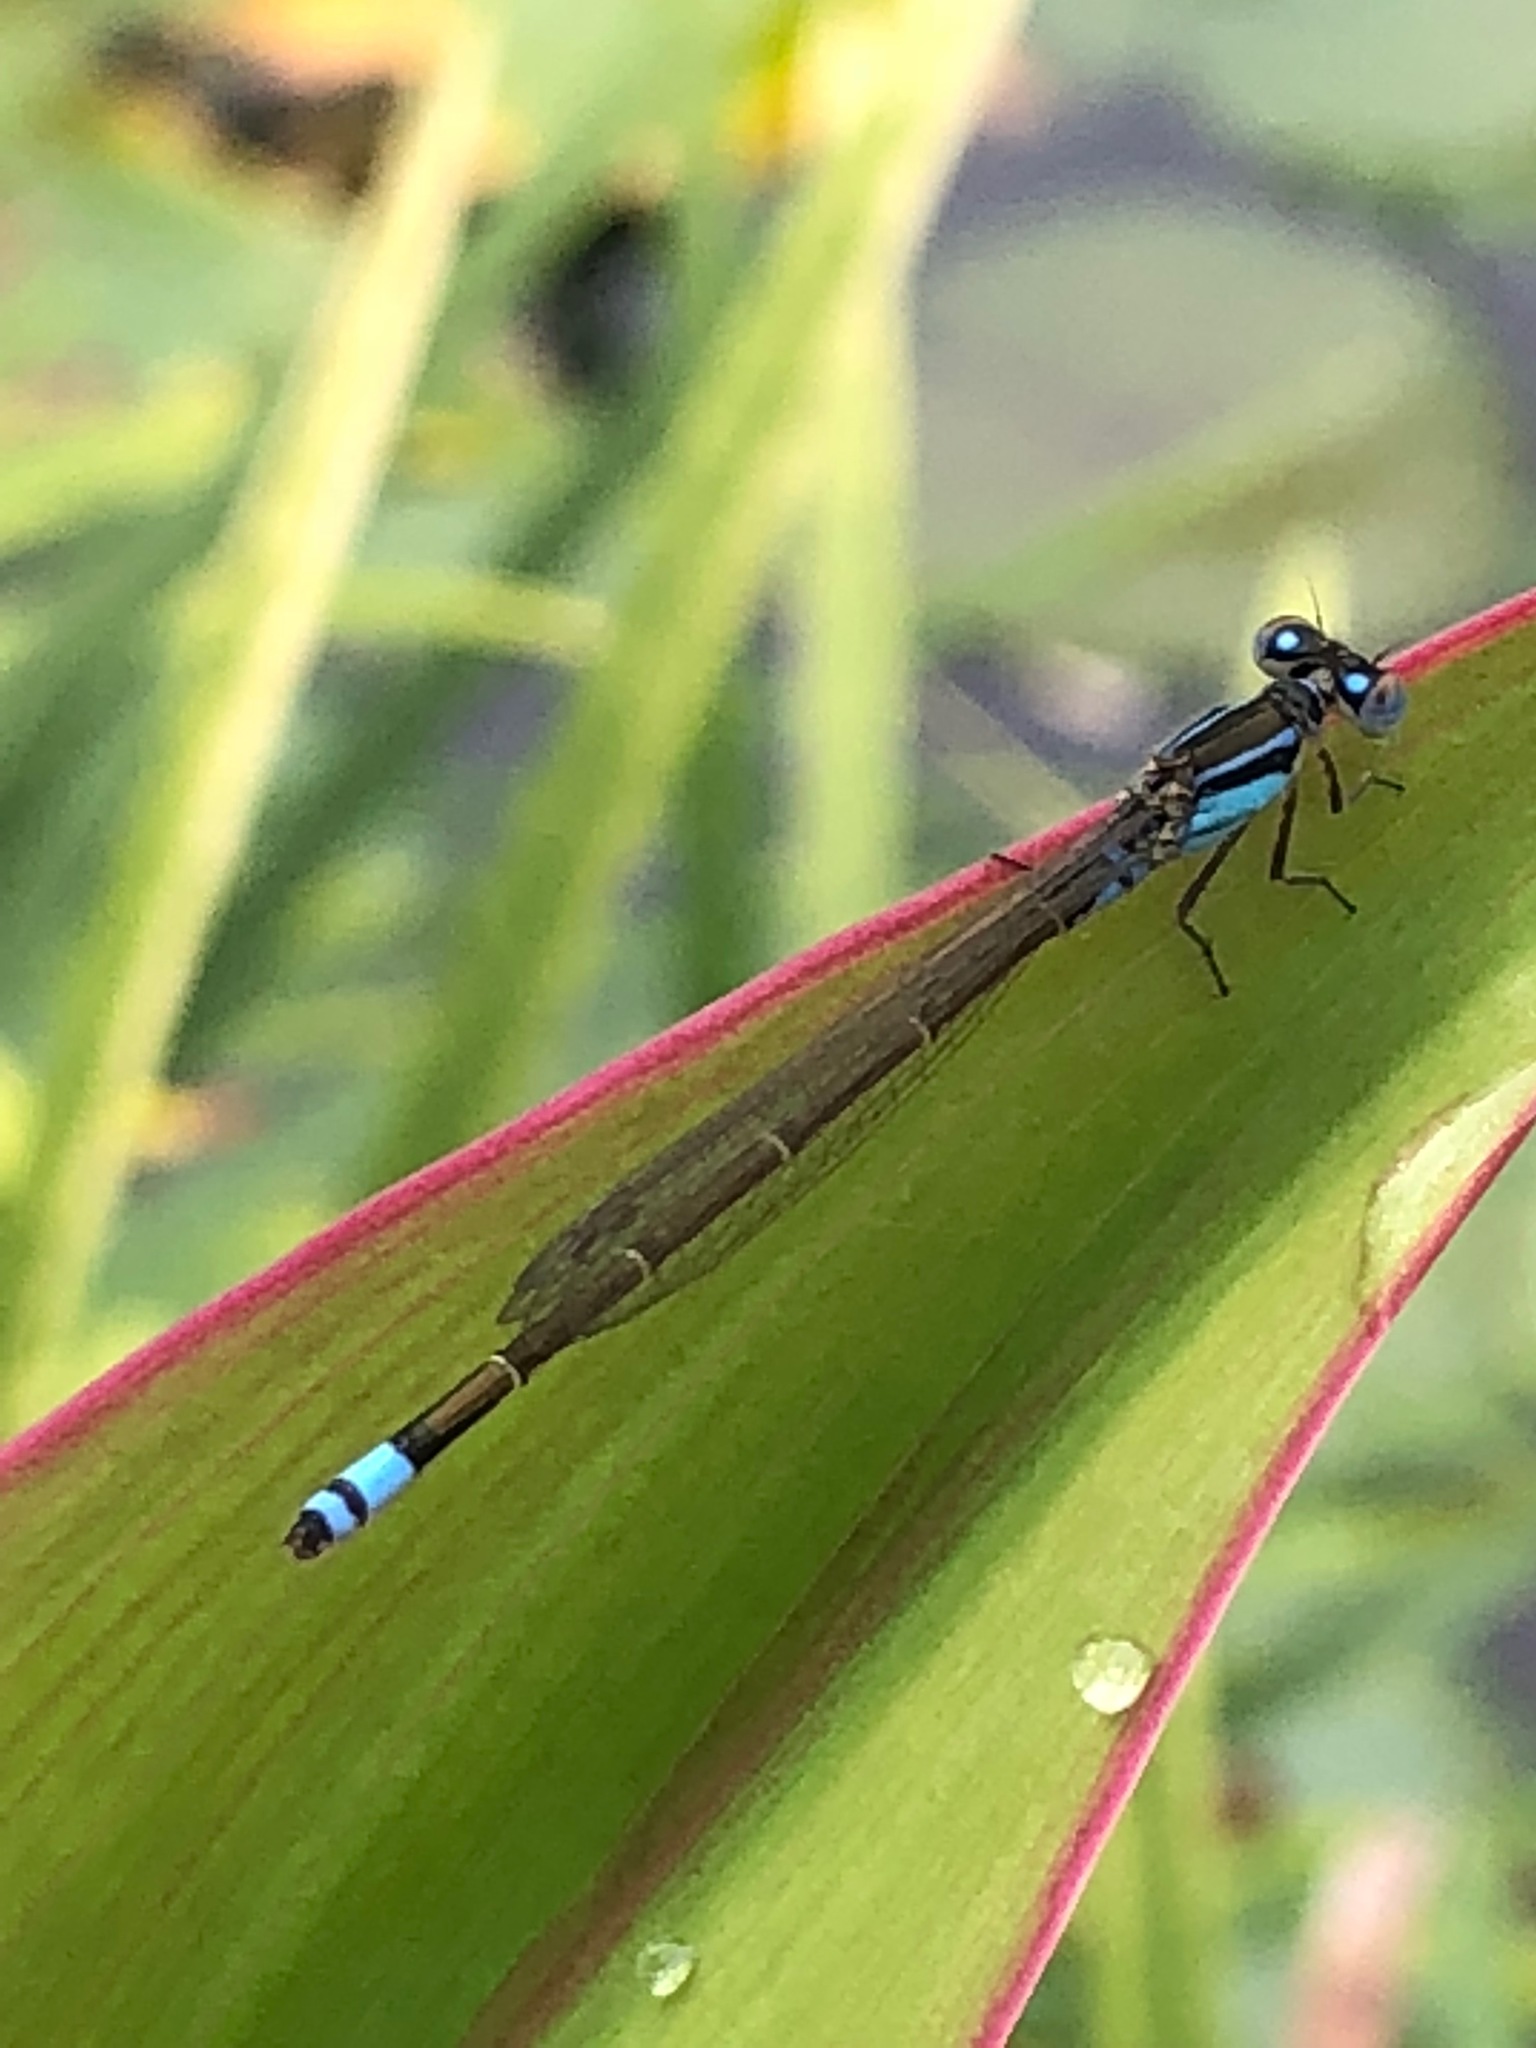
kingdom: Animalia
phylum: Arthropoda
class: Insecta
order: Odonata
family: Coenagrionidae
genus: Ischnura
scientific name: Ischnura heterosticta
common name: Common bluetail
